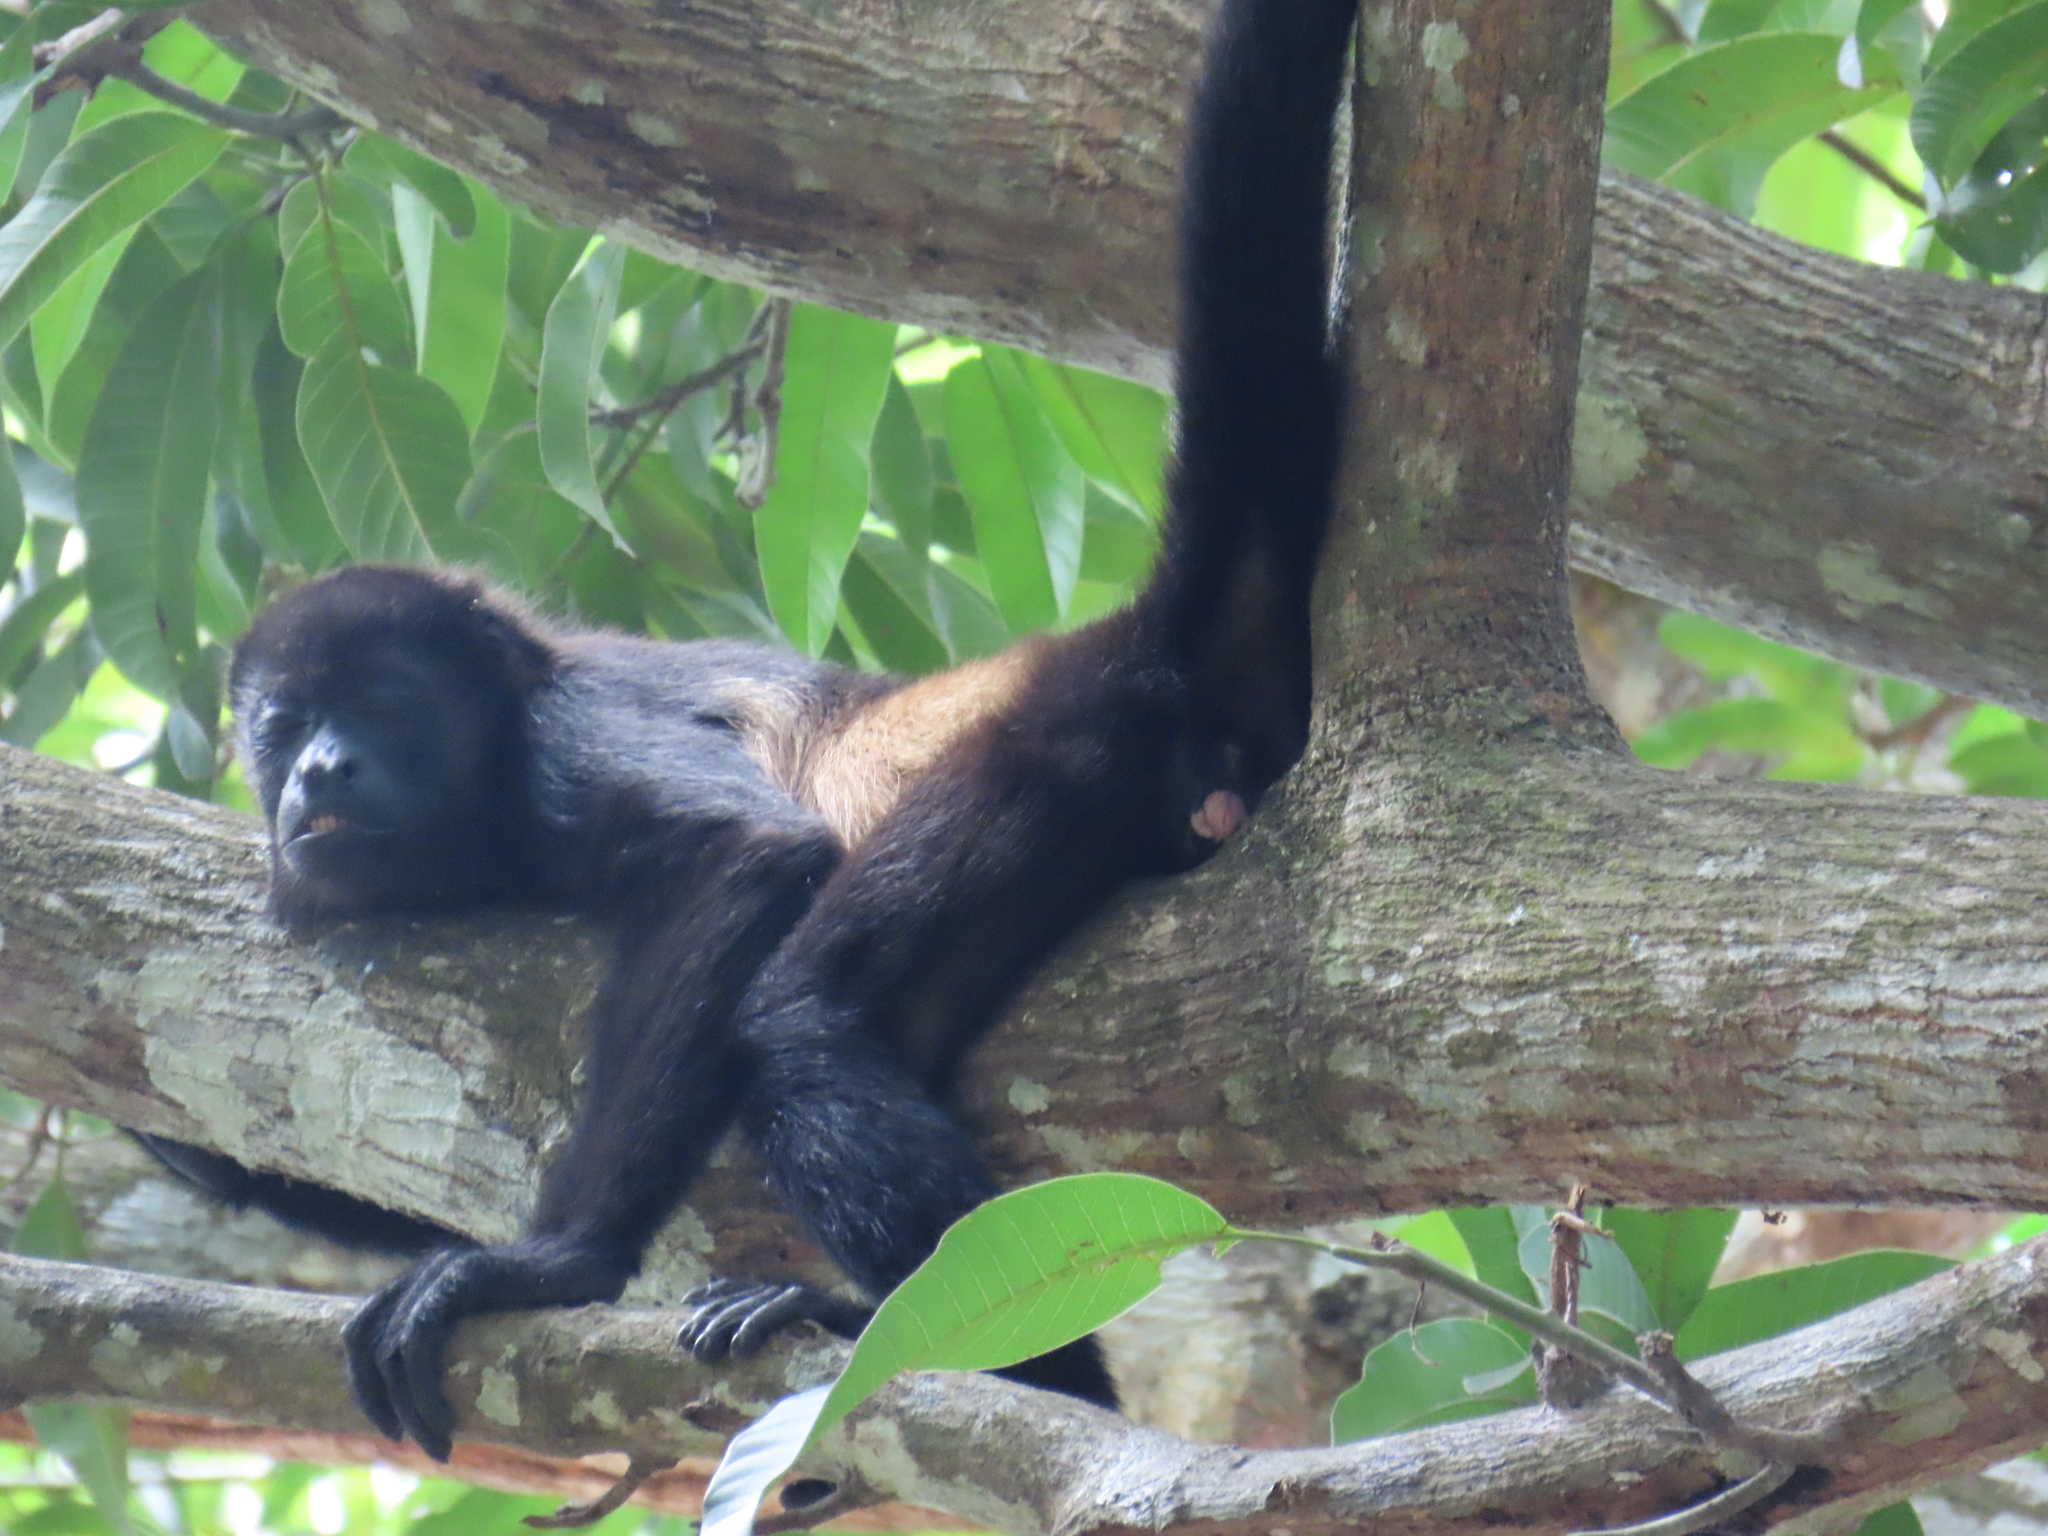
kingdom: Animalia
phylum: Chordata
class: Mammalia
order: Primates
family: Atelidae
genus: Alouatta
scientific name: Alouatta palliata
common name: Mantled howler
